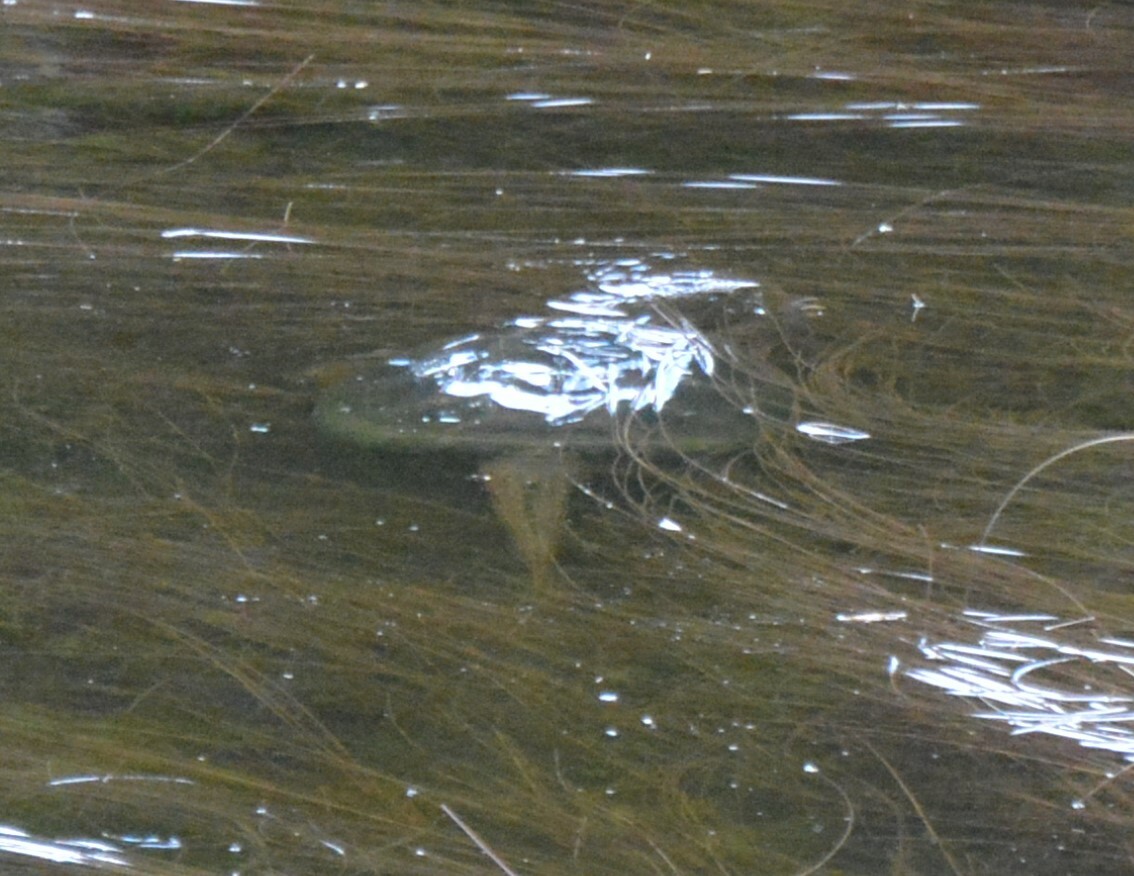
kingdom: Animalia
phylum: Chordata
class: Testudines
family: Chelydridae
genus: Chelydra
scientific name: Chelydra serpentina
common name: Common snapping turtle
